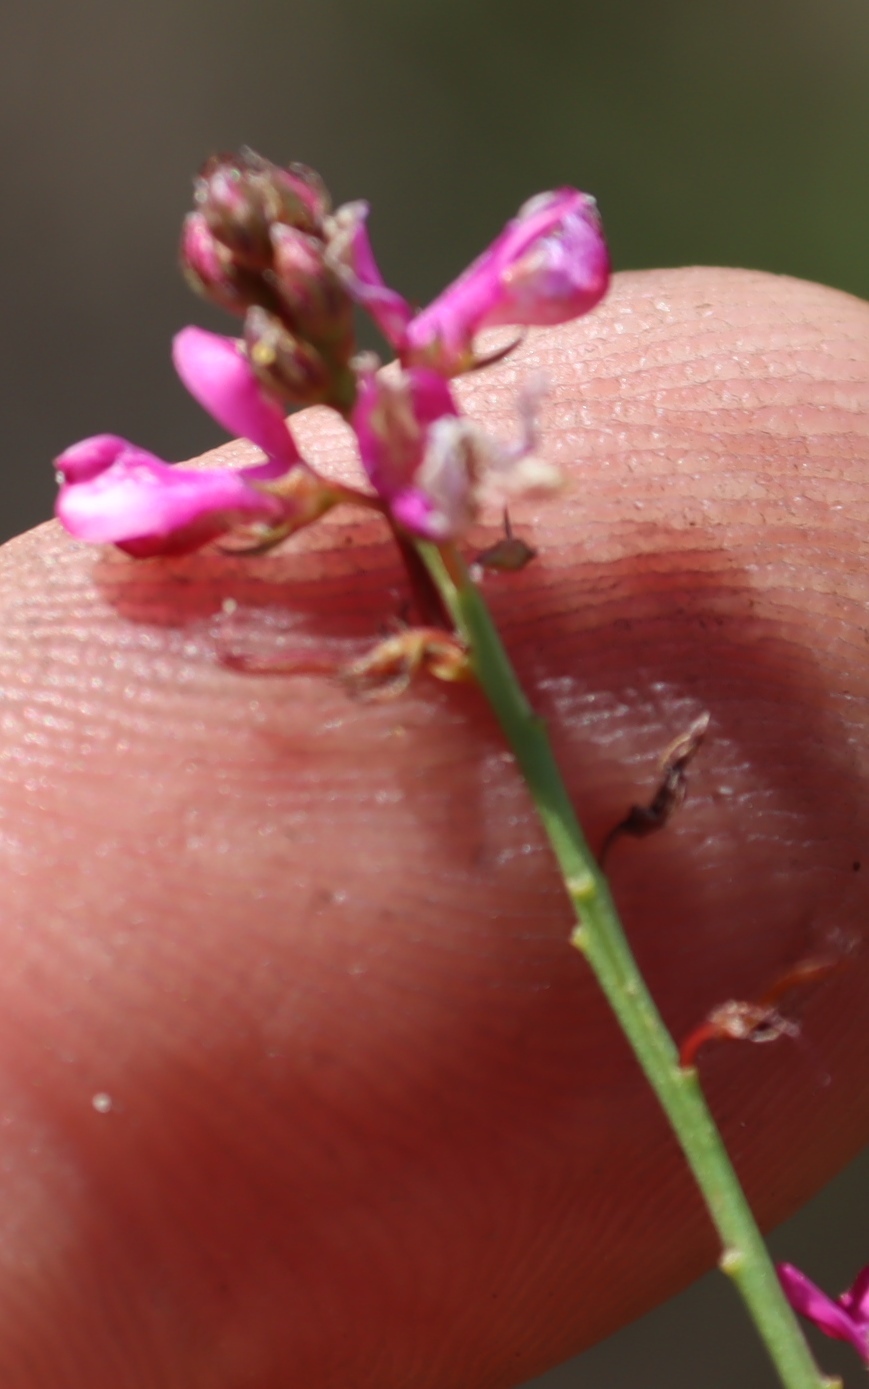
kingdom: Plantae
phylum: Tracheophyta
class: Magnoliopsida
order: Fabales
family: Fabaceae
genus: Indigofera
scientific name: Indigofera capillaris
